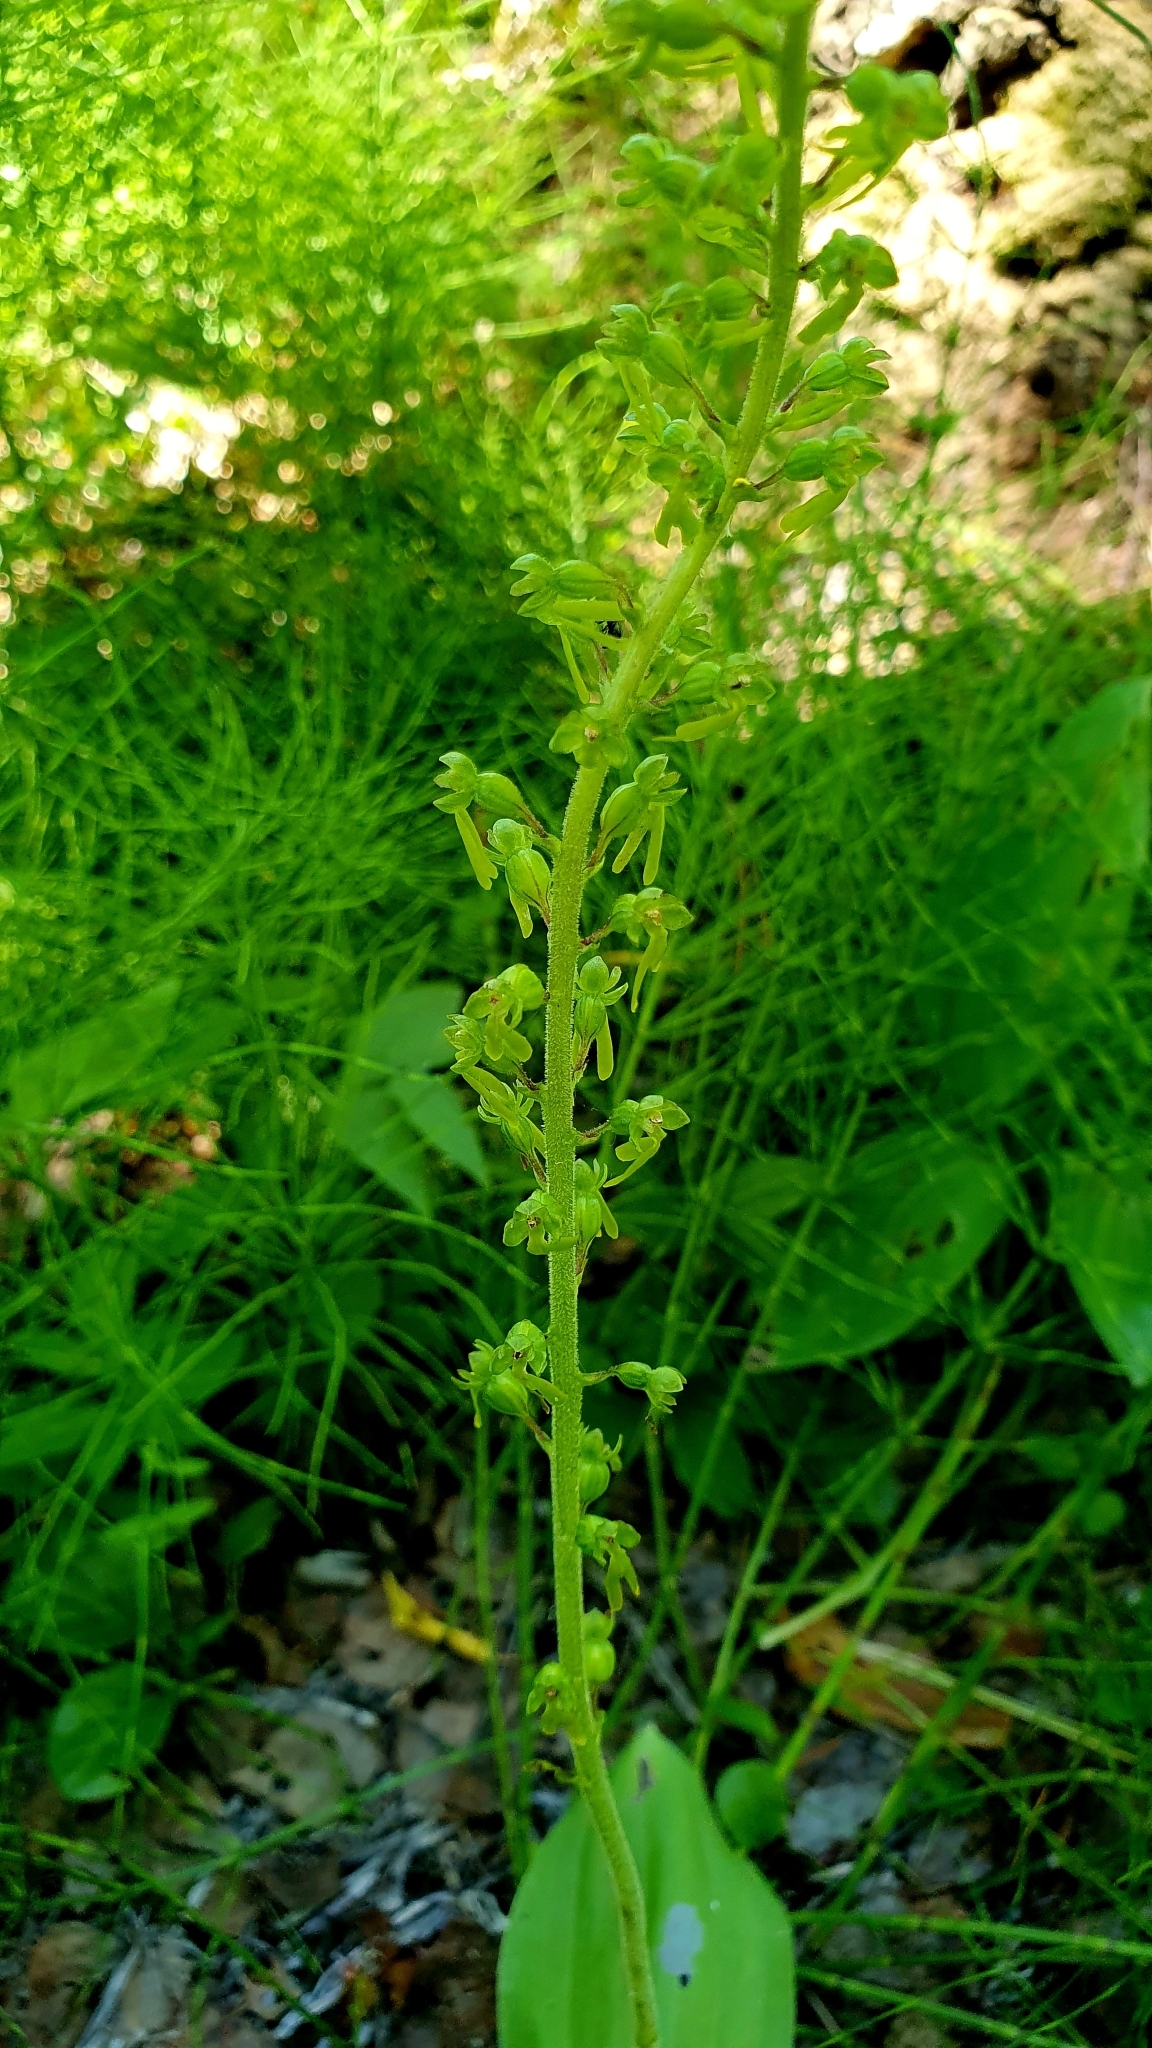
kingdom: Plantae
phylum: Tracheophyta
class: Liliopsida
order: Asparagales
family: Orchidaceae
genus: Neottia
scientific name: Neottia ovata
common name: Common twayblade
